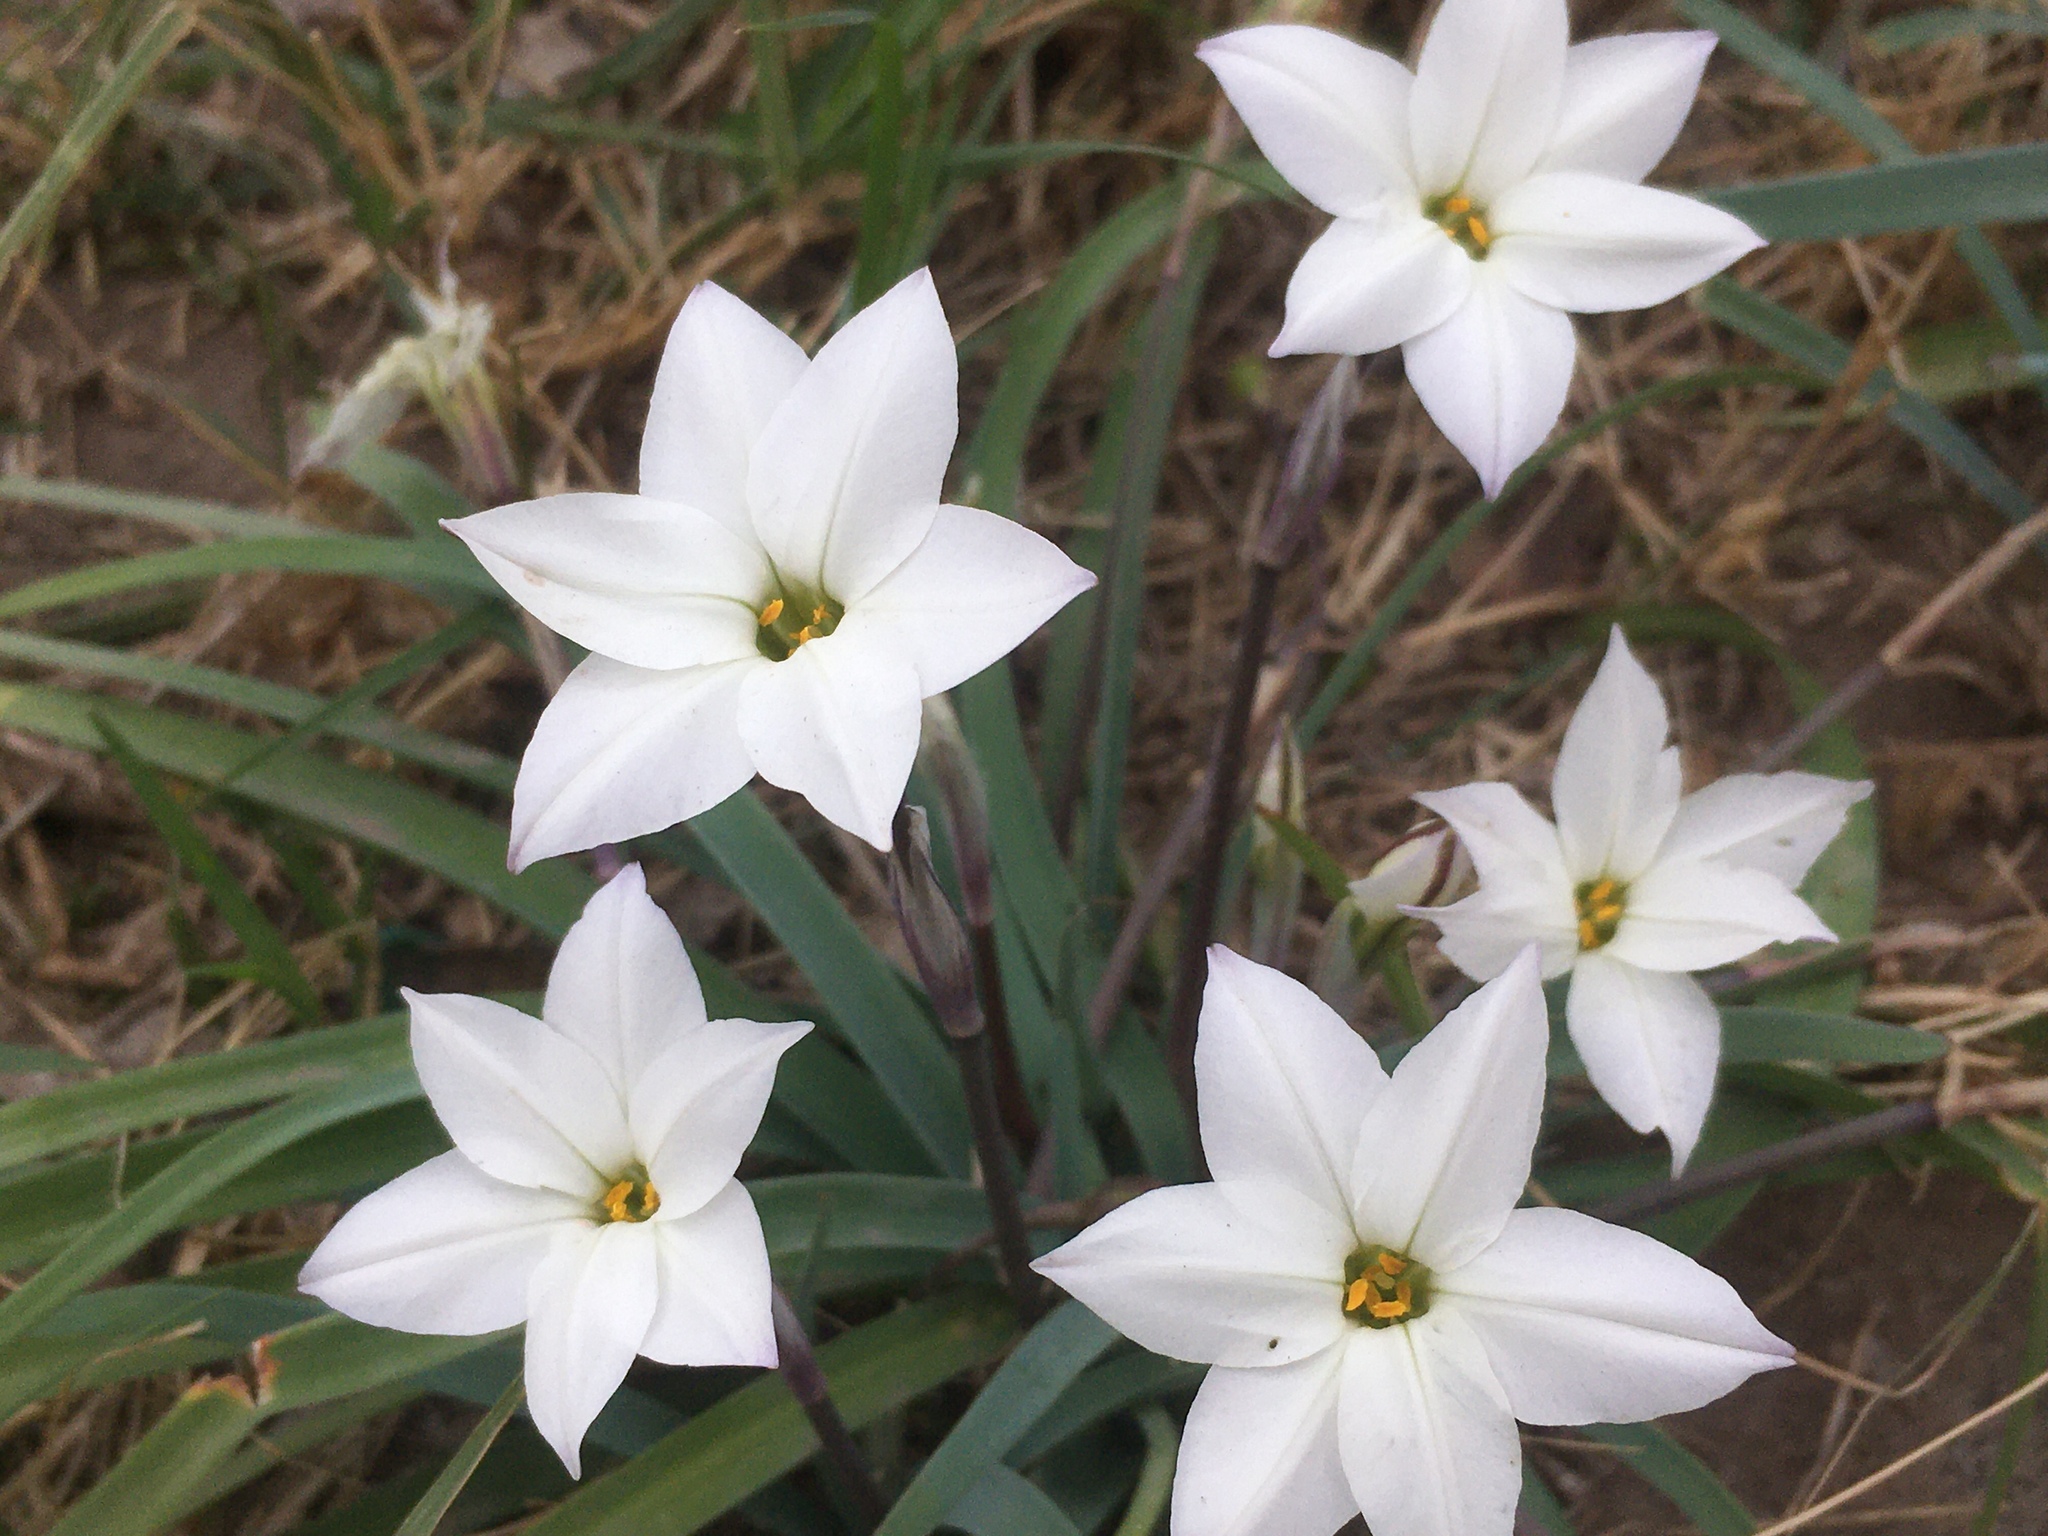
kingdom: Plantae
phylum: Tracheophyta
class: Liliopsida
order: Asparagales
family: Amaryllidaceae
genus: Ipheion
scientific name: Ipheion uniflorum
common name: Spring starflower
